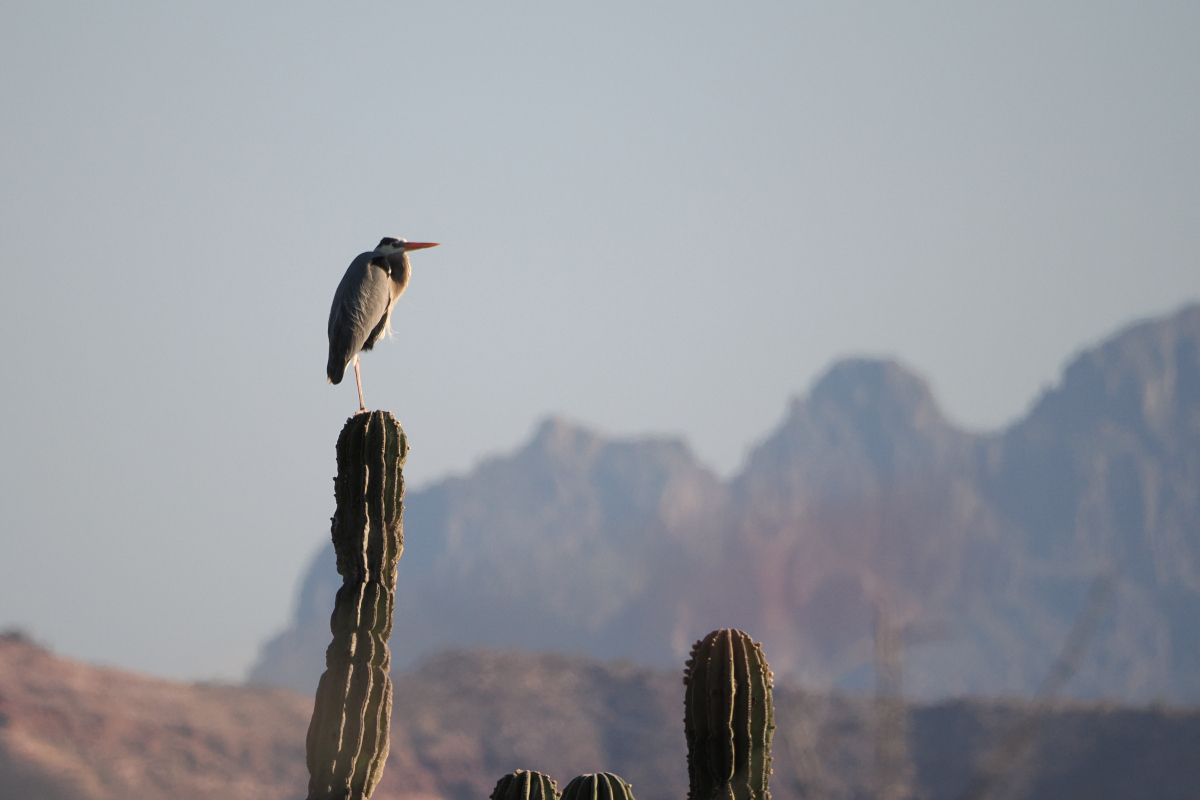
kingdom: Animalia
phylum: Chordata
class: Aves
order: Pelecaniformes
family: Ardeidae
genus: Ardea
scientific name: Ardea herodias
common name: Great blue heron
